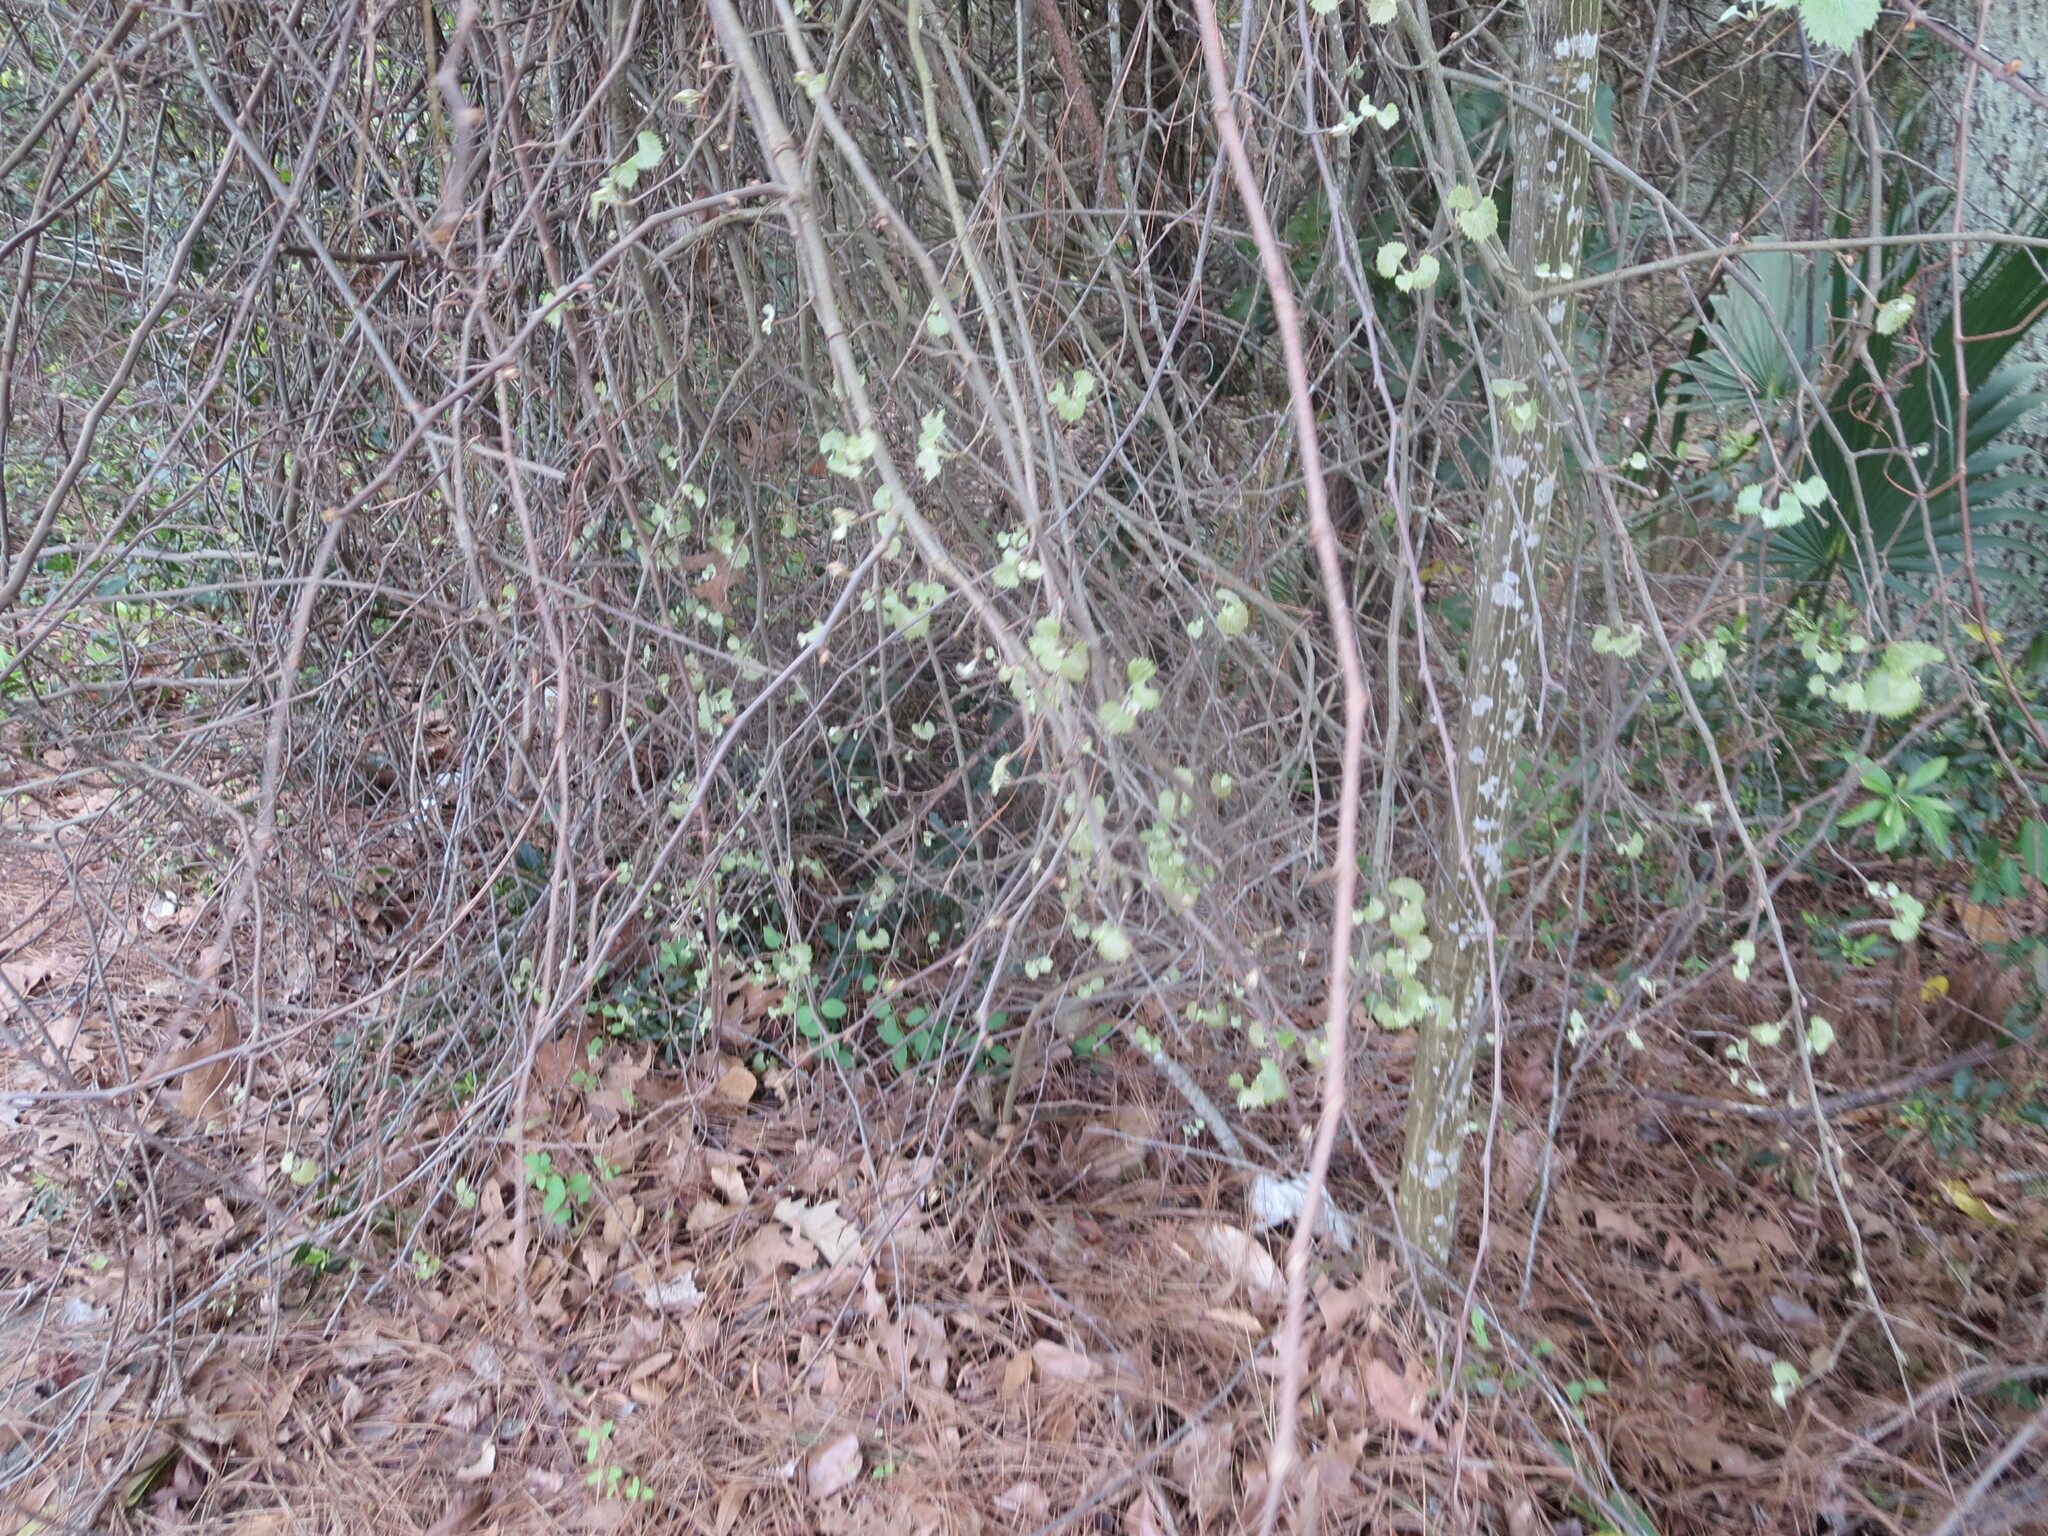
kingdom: Plantae
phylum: Tracheophyta
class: Magnoliopsida
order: Vitales
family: Vitaceae
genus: Vitis
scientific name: Vitis rotundifolia
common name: Muscadine grape
